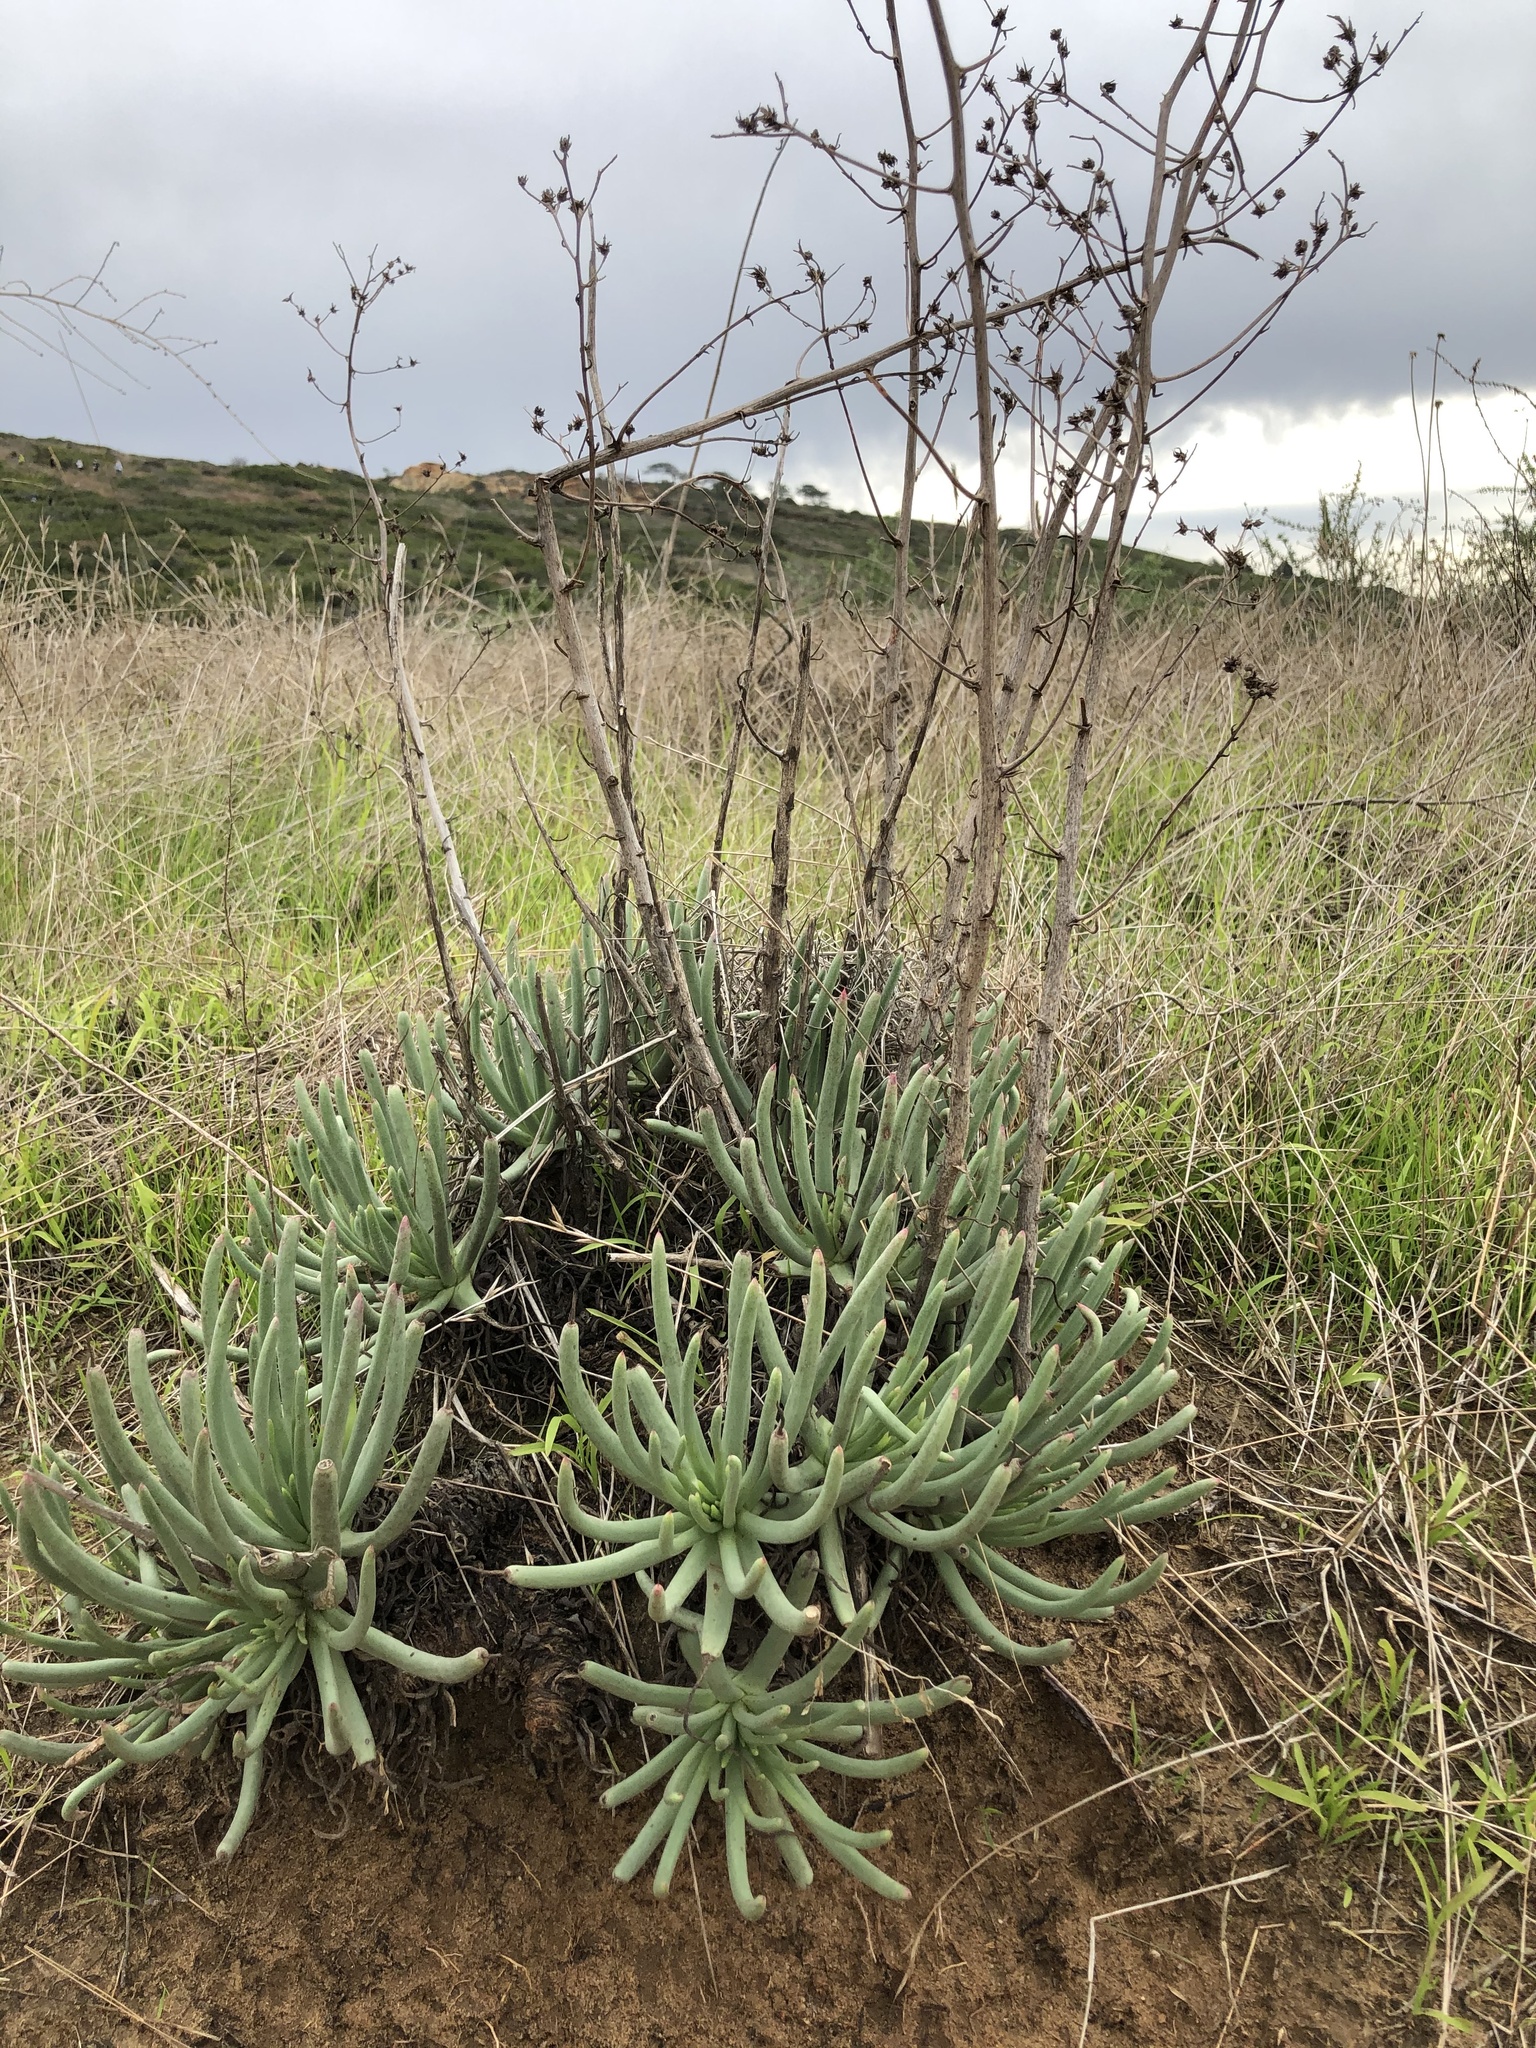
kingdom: Plantae
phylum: Tracheophyta
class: Magnoliopsida
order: Saxifragales
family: Crassulaceae
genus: Dudleya
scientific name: Dudleya edulis
